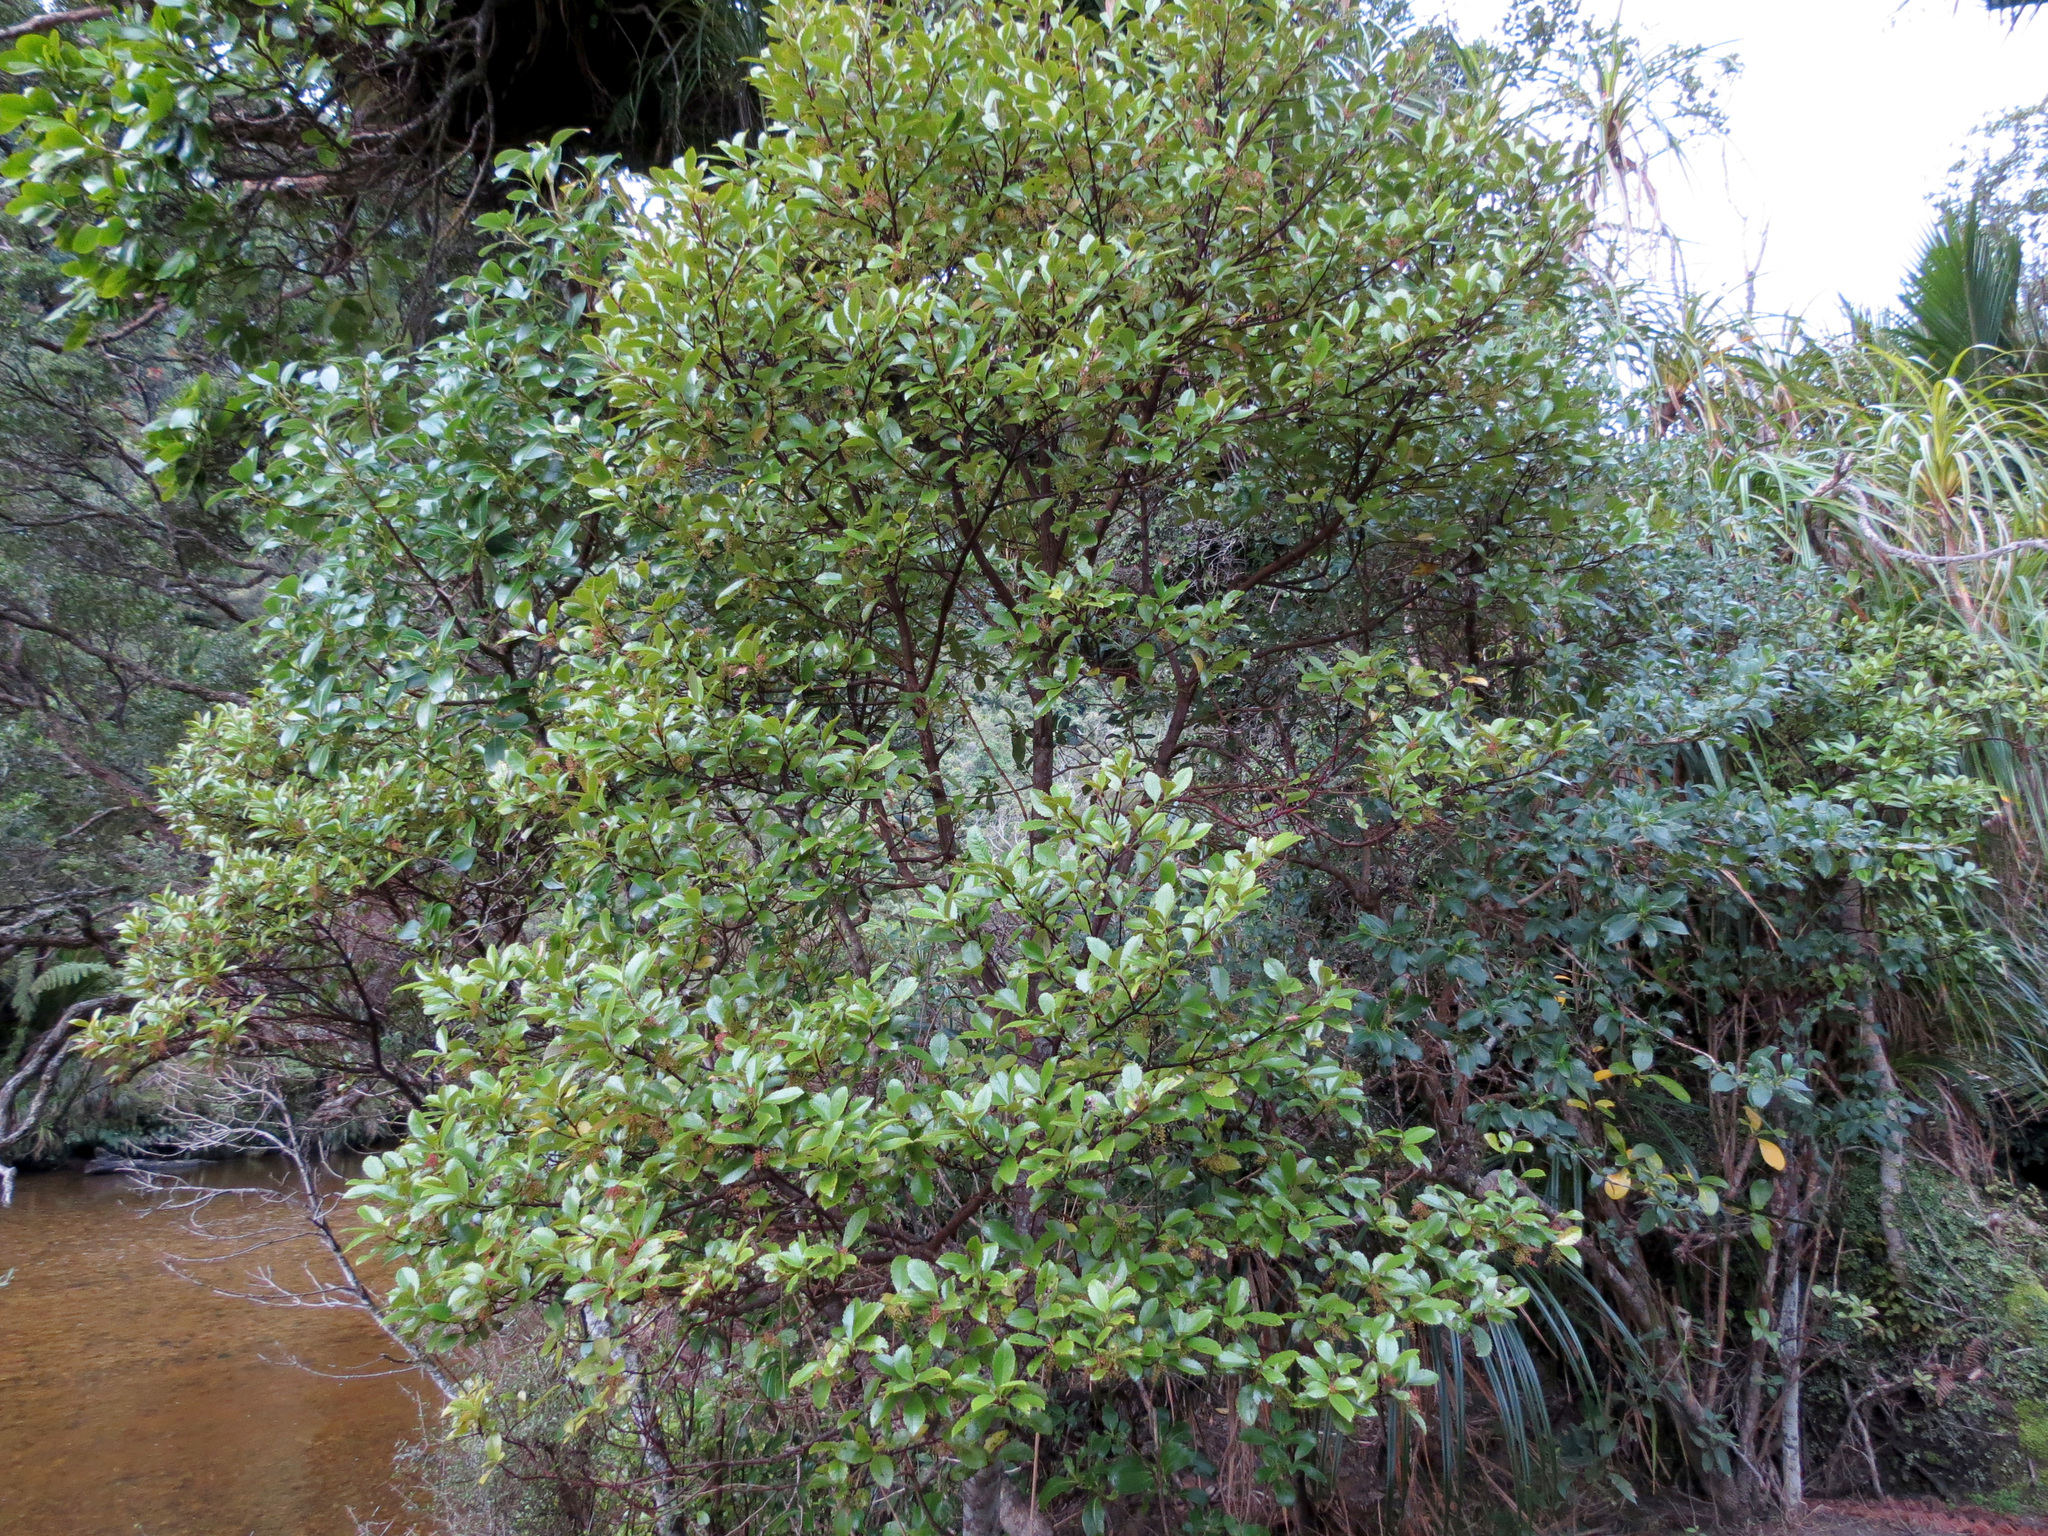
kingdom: Plantae
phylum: Tracheophyta
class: Magnoliopsida
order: Chloranthales
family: Chloranthaceae
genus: Ascarina
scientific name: Ascarina lucida
